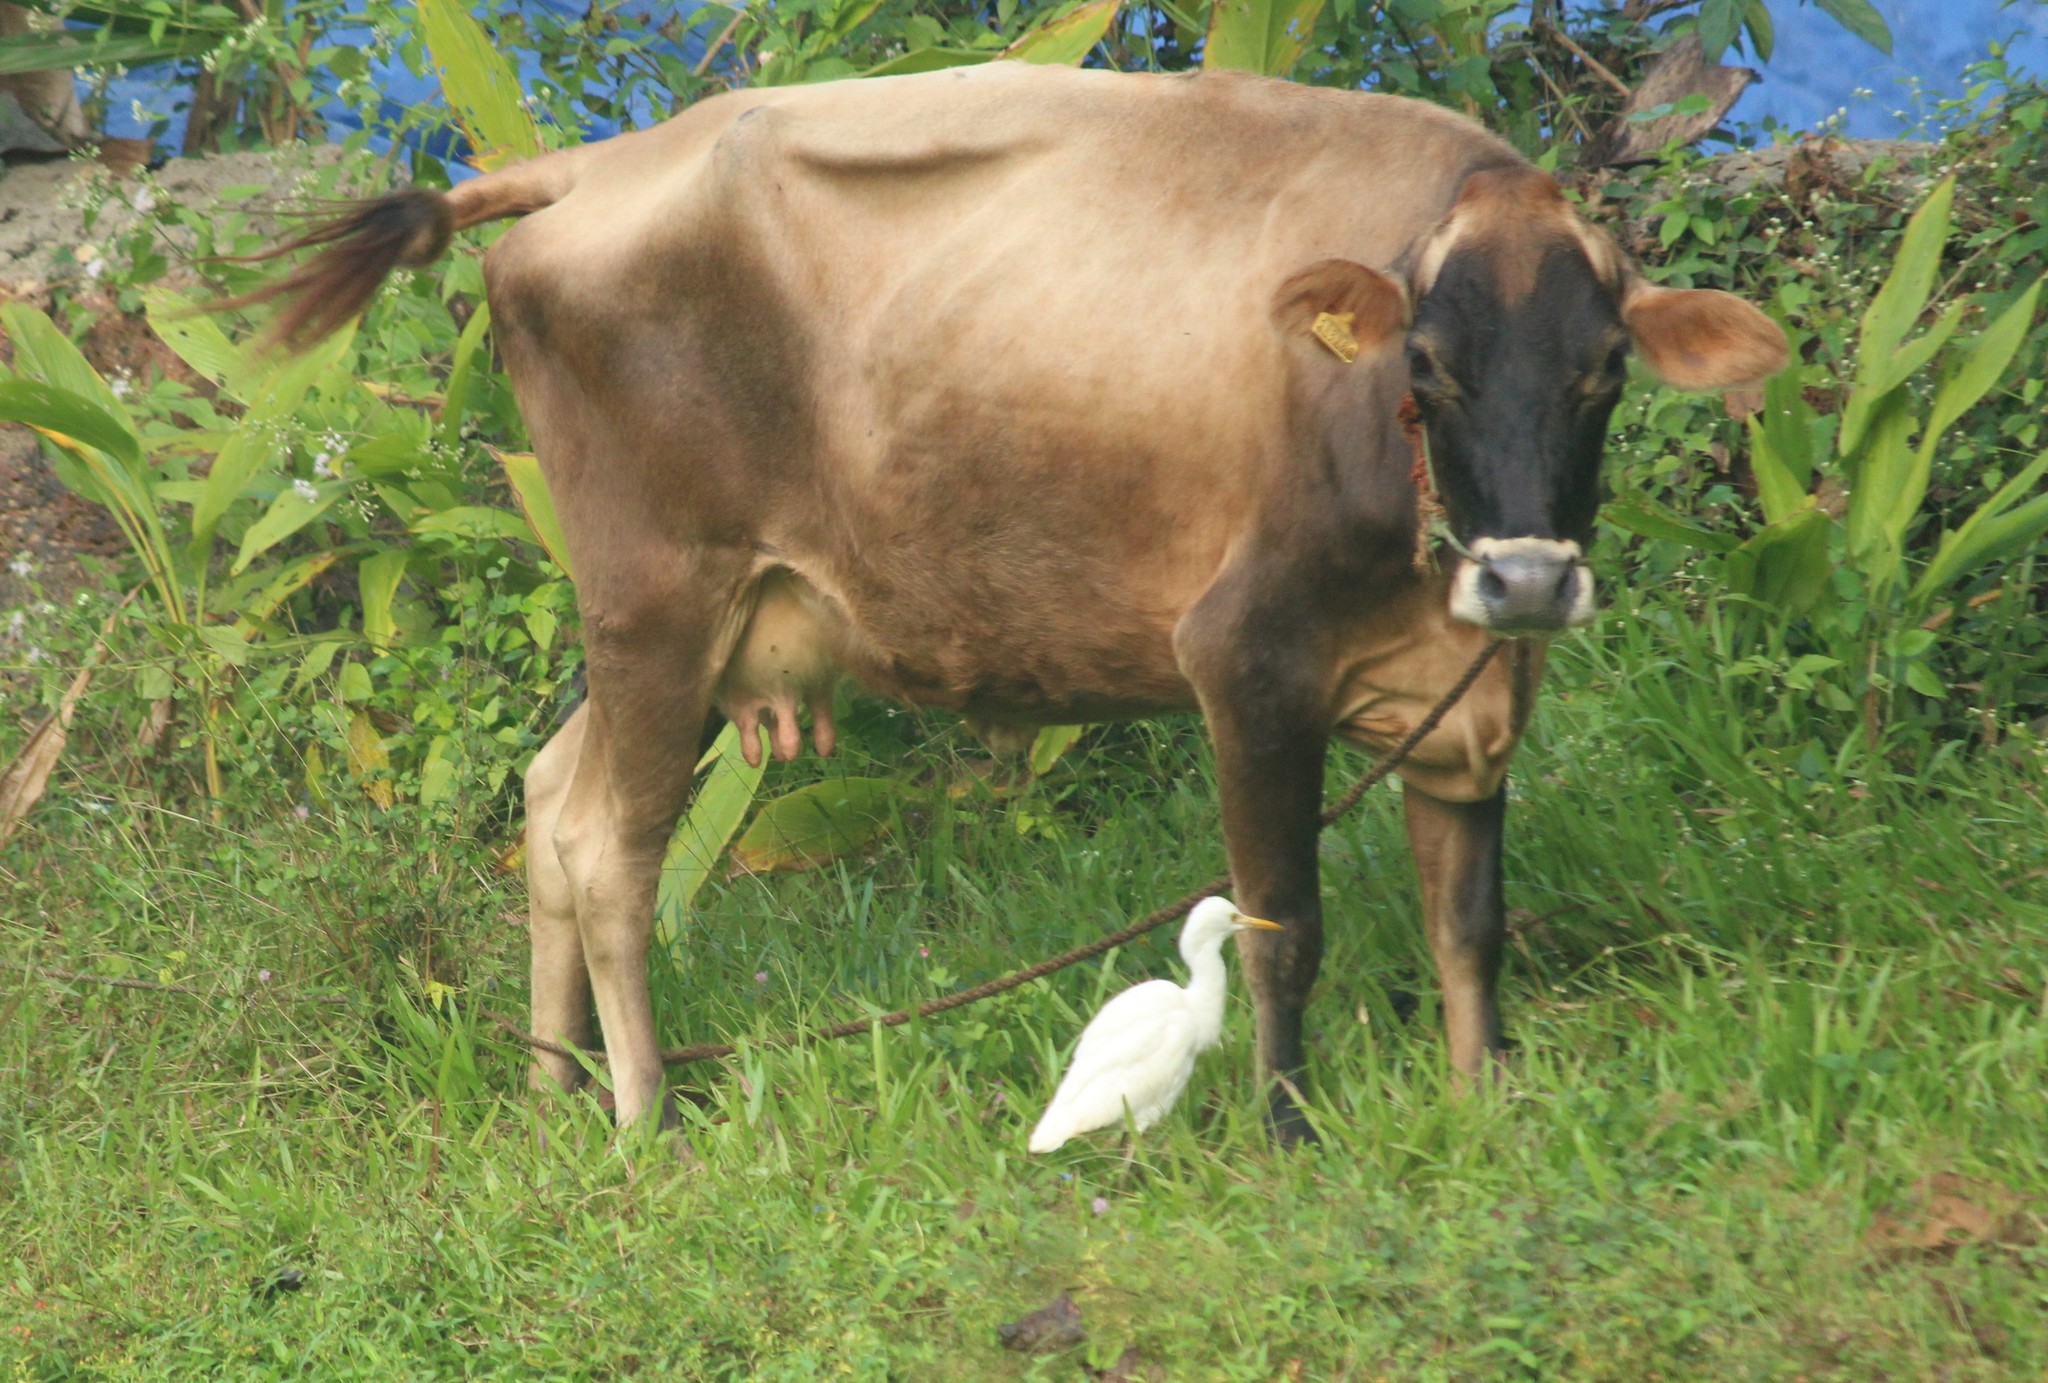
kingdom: Animalia
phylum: Chordata
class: Aves
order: Pelecaniformes
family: Ardeidae
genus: Bubulcus
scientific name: Bubulcus coromandus
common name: Eastern cattle egret
